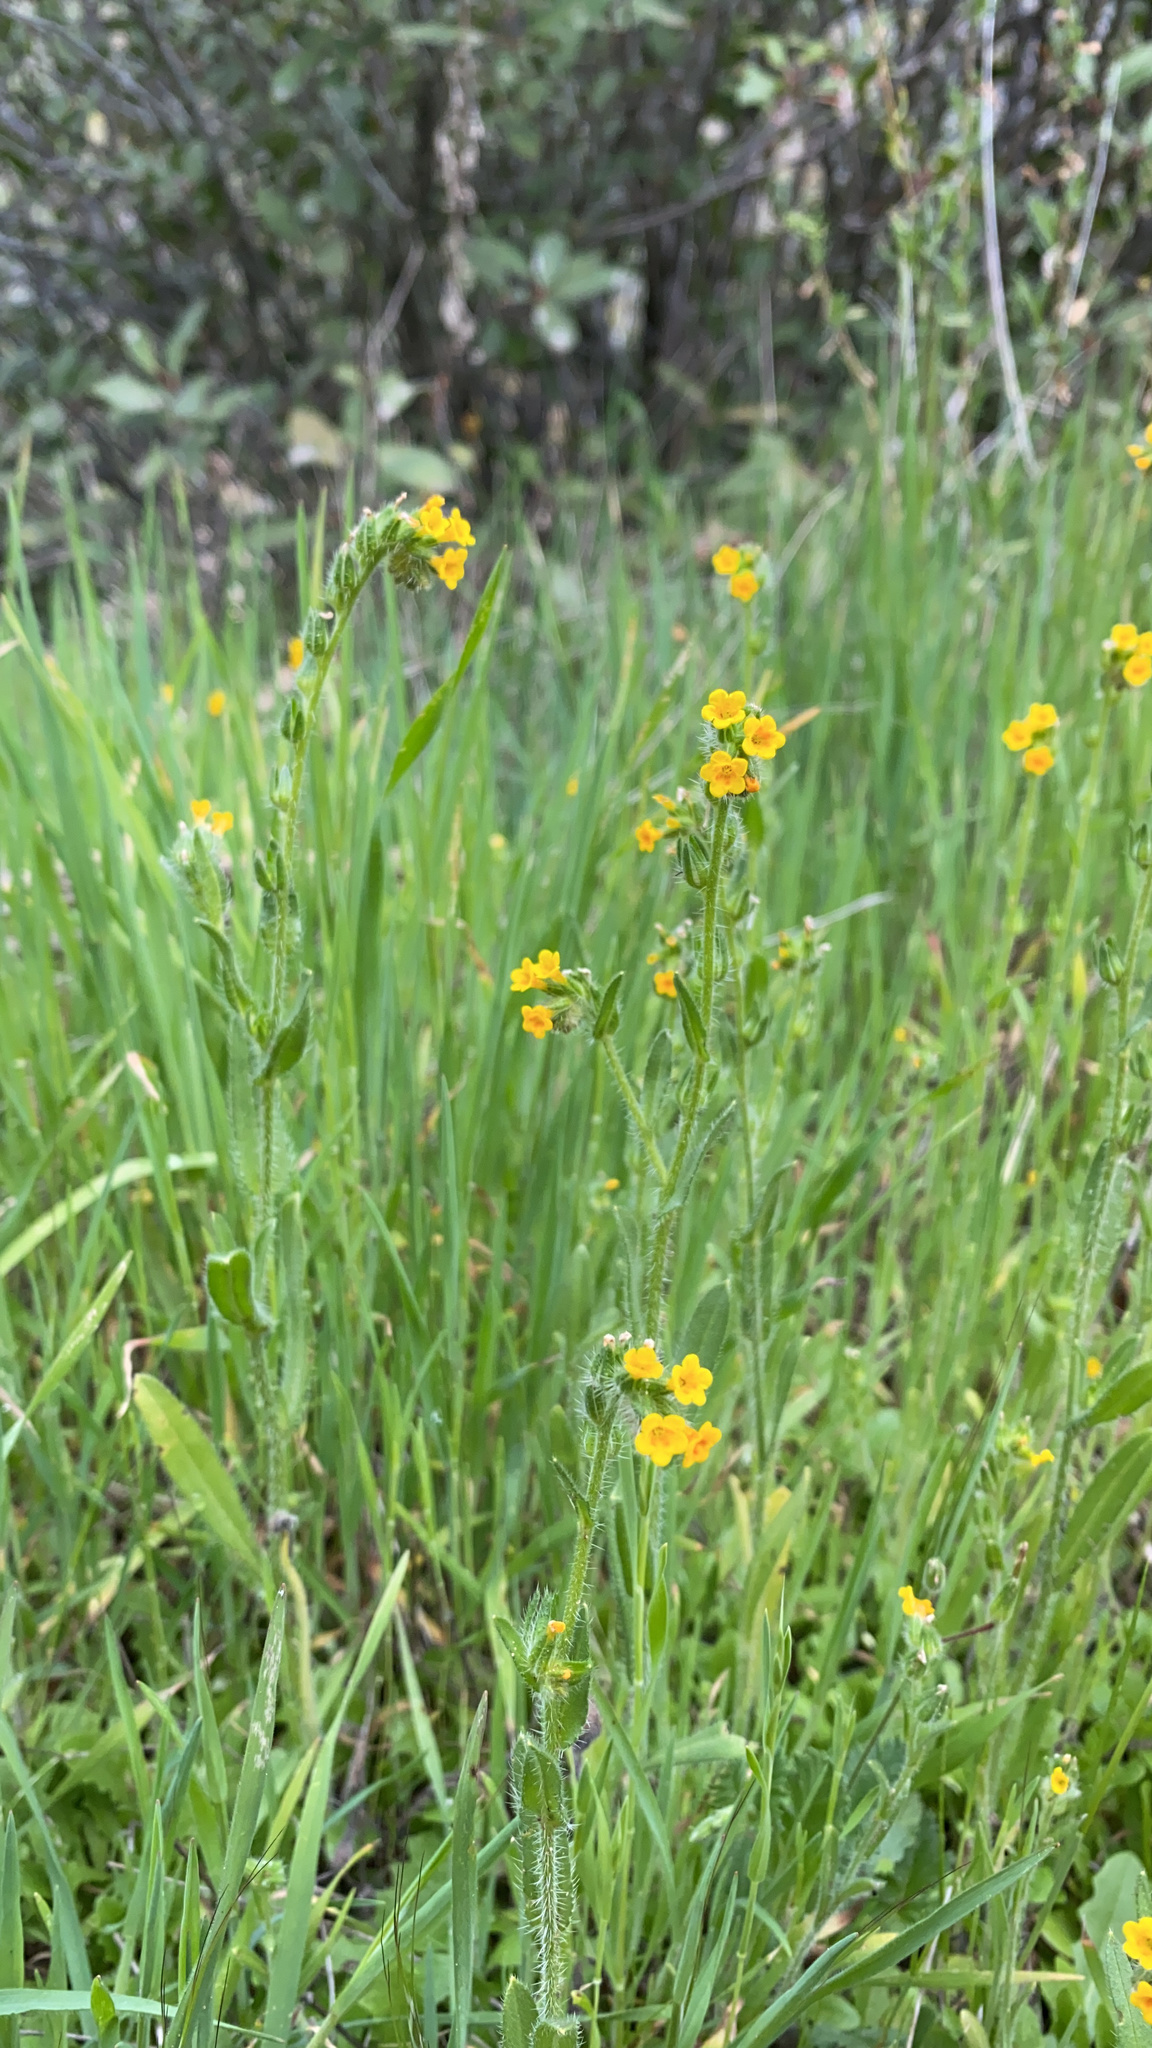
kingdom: Plantae
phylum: Tracheophyta
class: Magnoliopsida
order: Boraginales
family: Boraginaceae
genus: Amsinckia
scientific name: Amsinckia menziesii
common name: Menzies' fiddleneck
